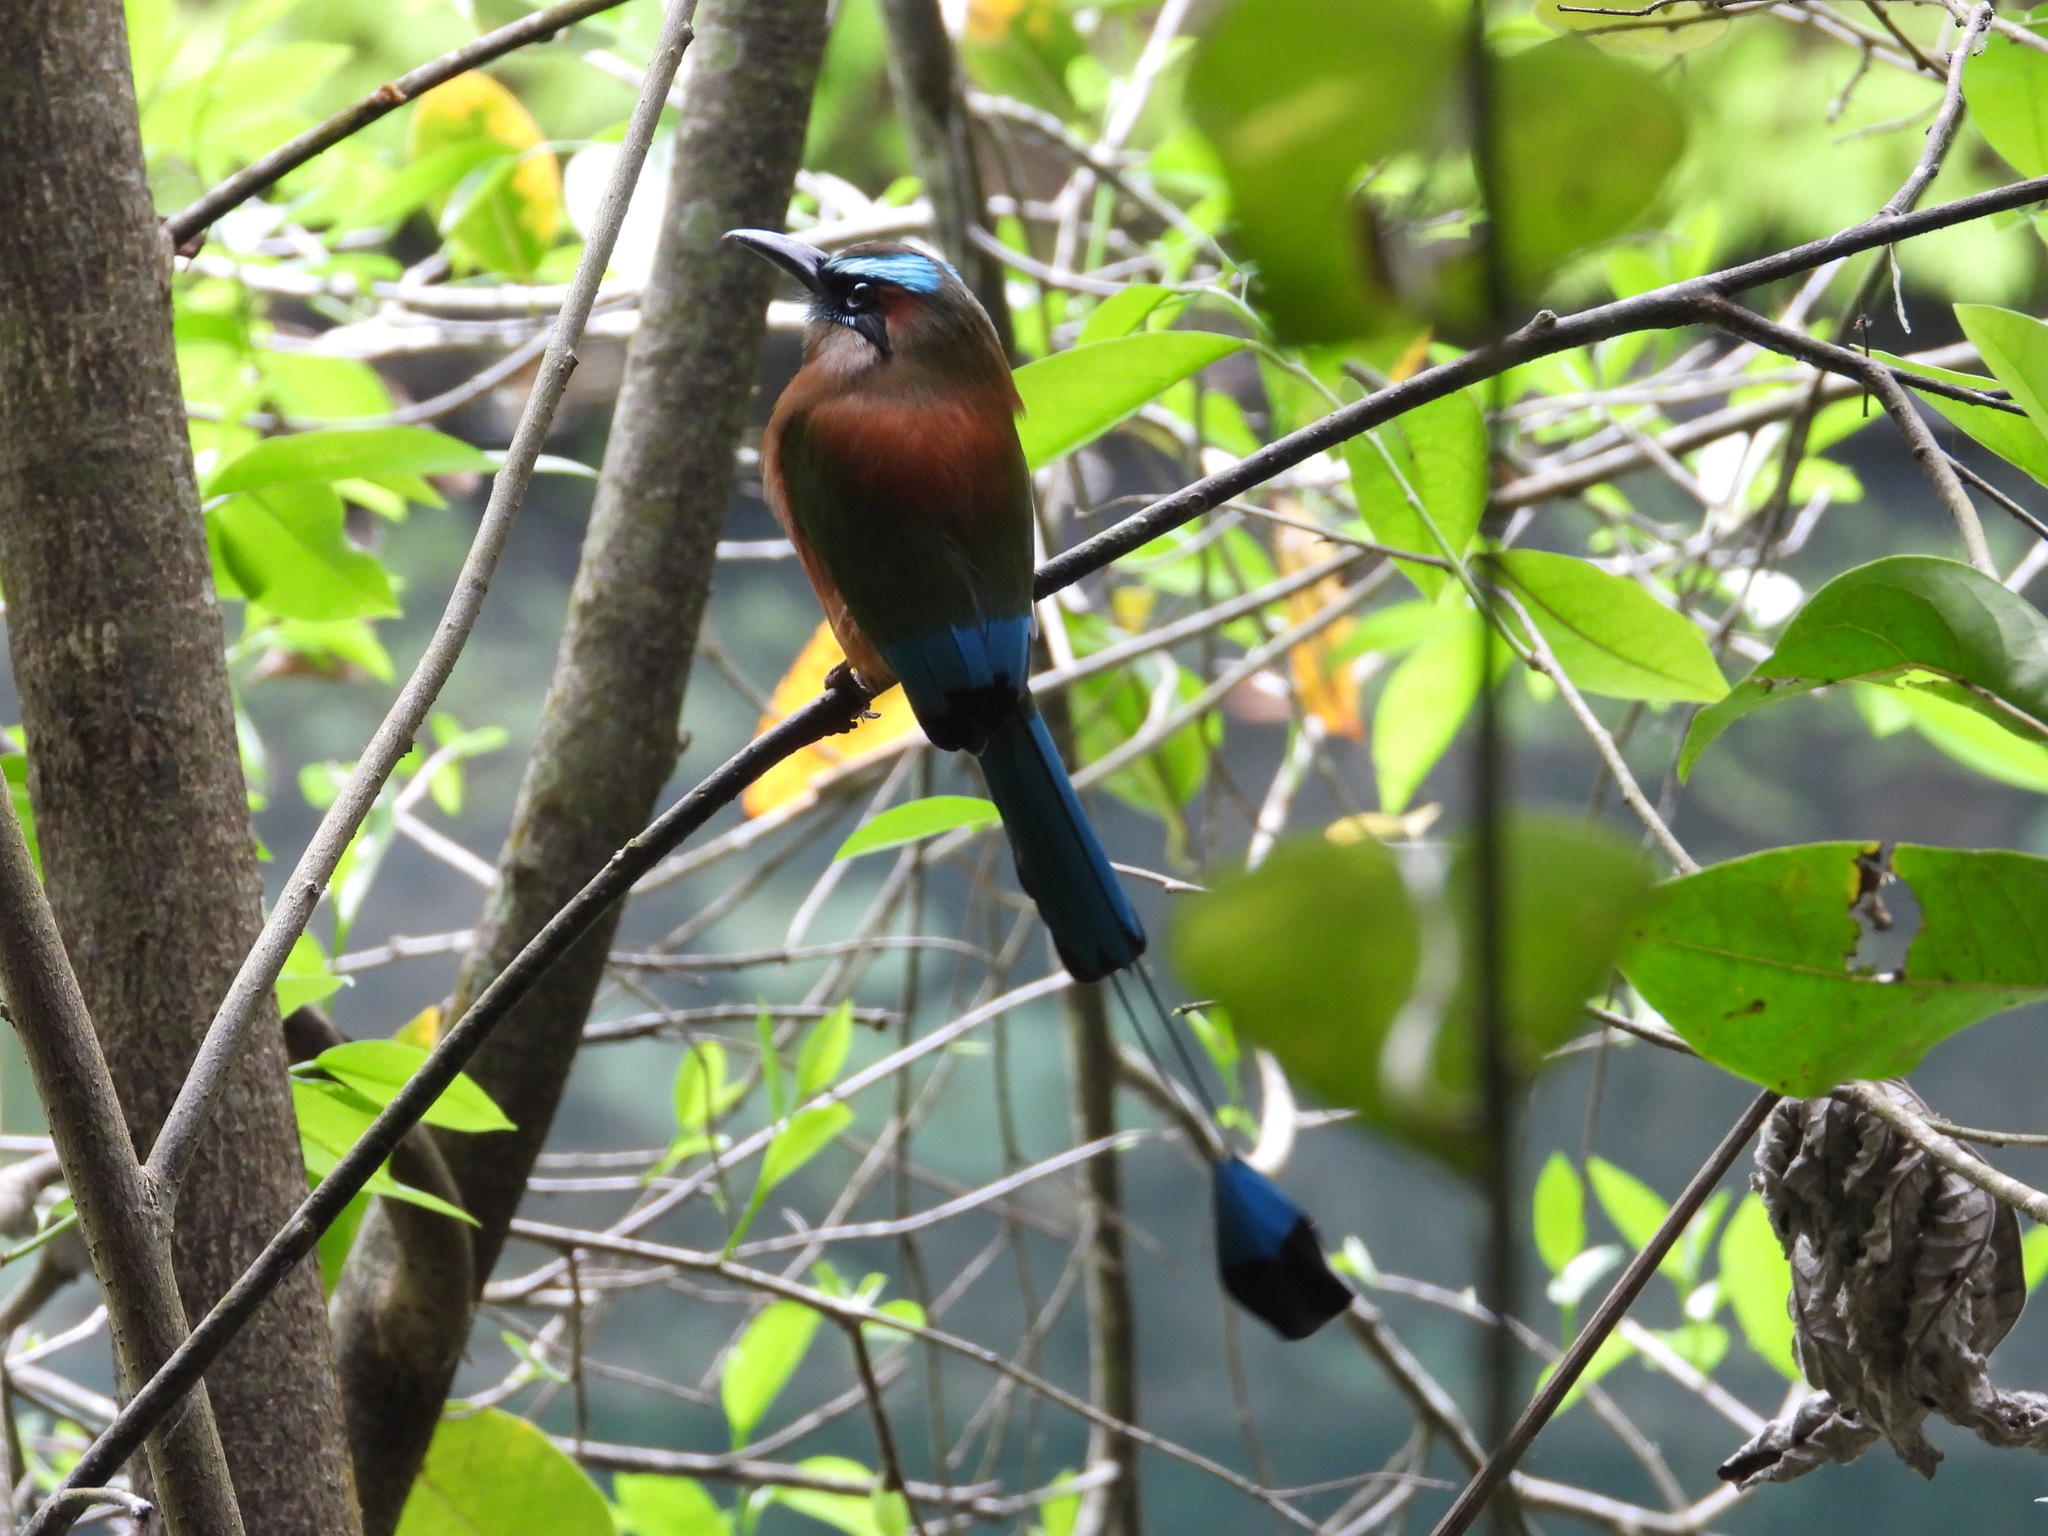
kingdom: Animalia
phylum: Chordata
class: Aves
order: Coraciiformes
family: Momotidae
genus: Eumomota
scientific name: Eumomota superciliosa
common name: Turquoise-browed motmot
